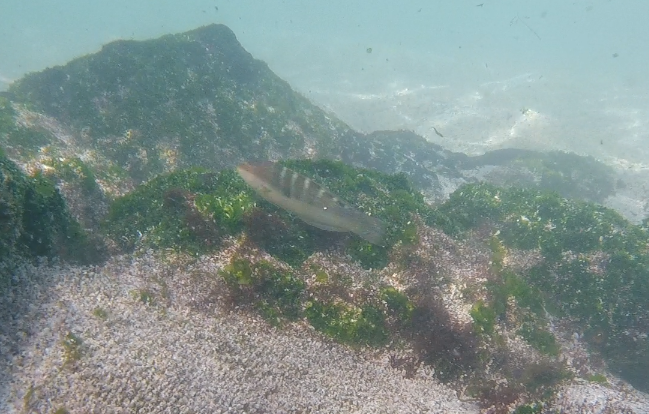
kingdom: Animalia
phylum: Chordata
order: Perciformes
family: Labridae
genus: Halichoeres
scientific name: Halichoeres notospilus
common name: Banded wrasse
